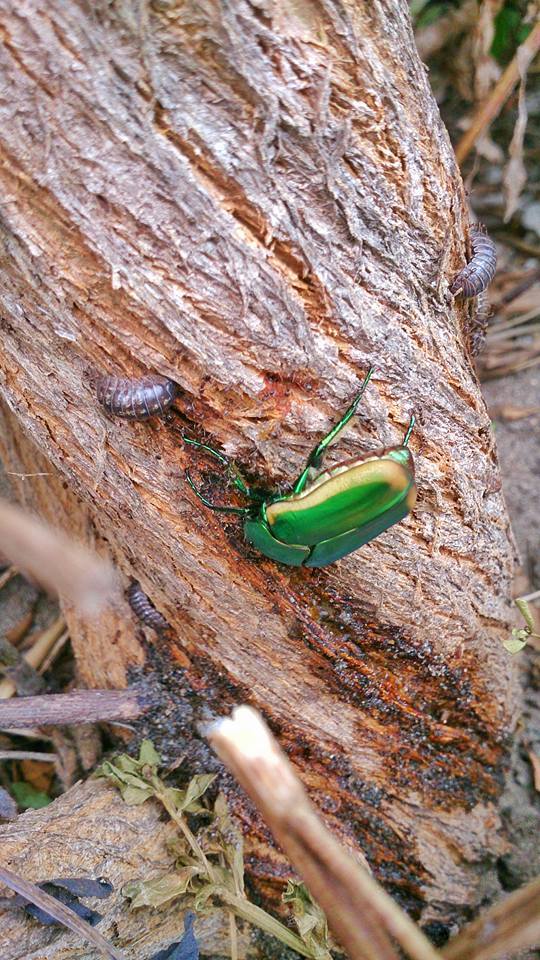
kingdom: Animalia
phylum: Arthropoda
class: Malacostraca
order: Isopoda
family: Armadillidiidae
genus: Armadillidium
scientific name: Armadillidium vulgare
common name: Common pill woodlouse
